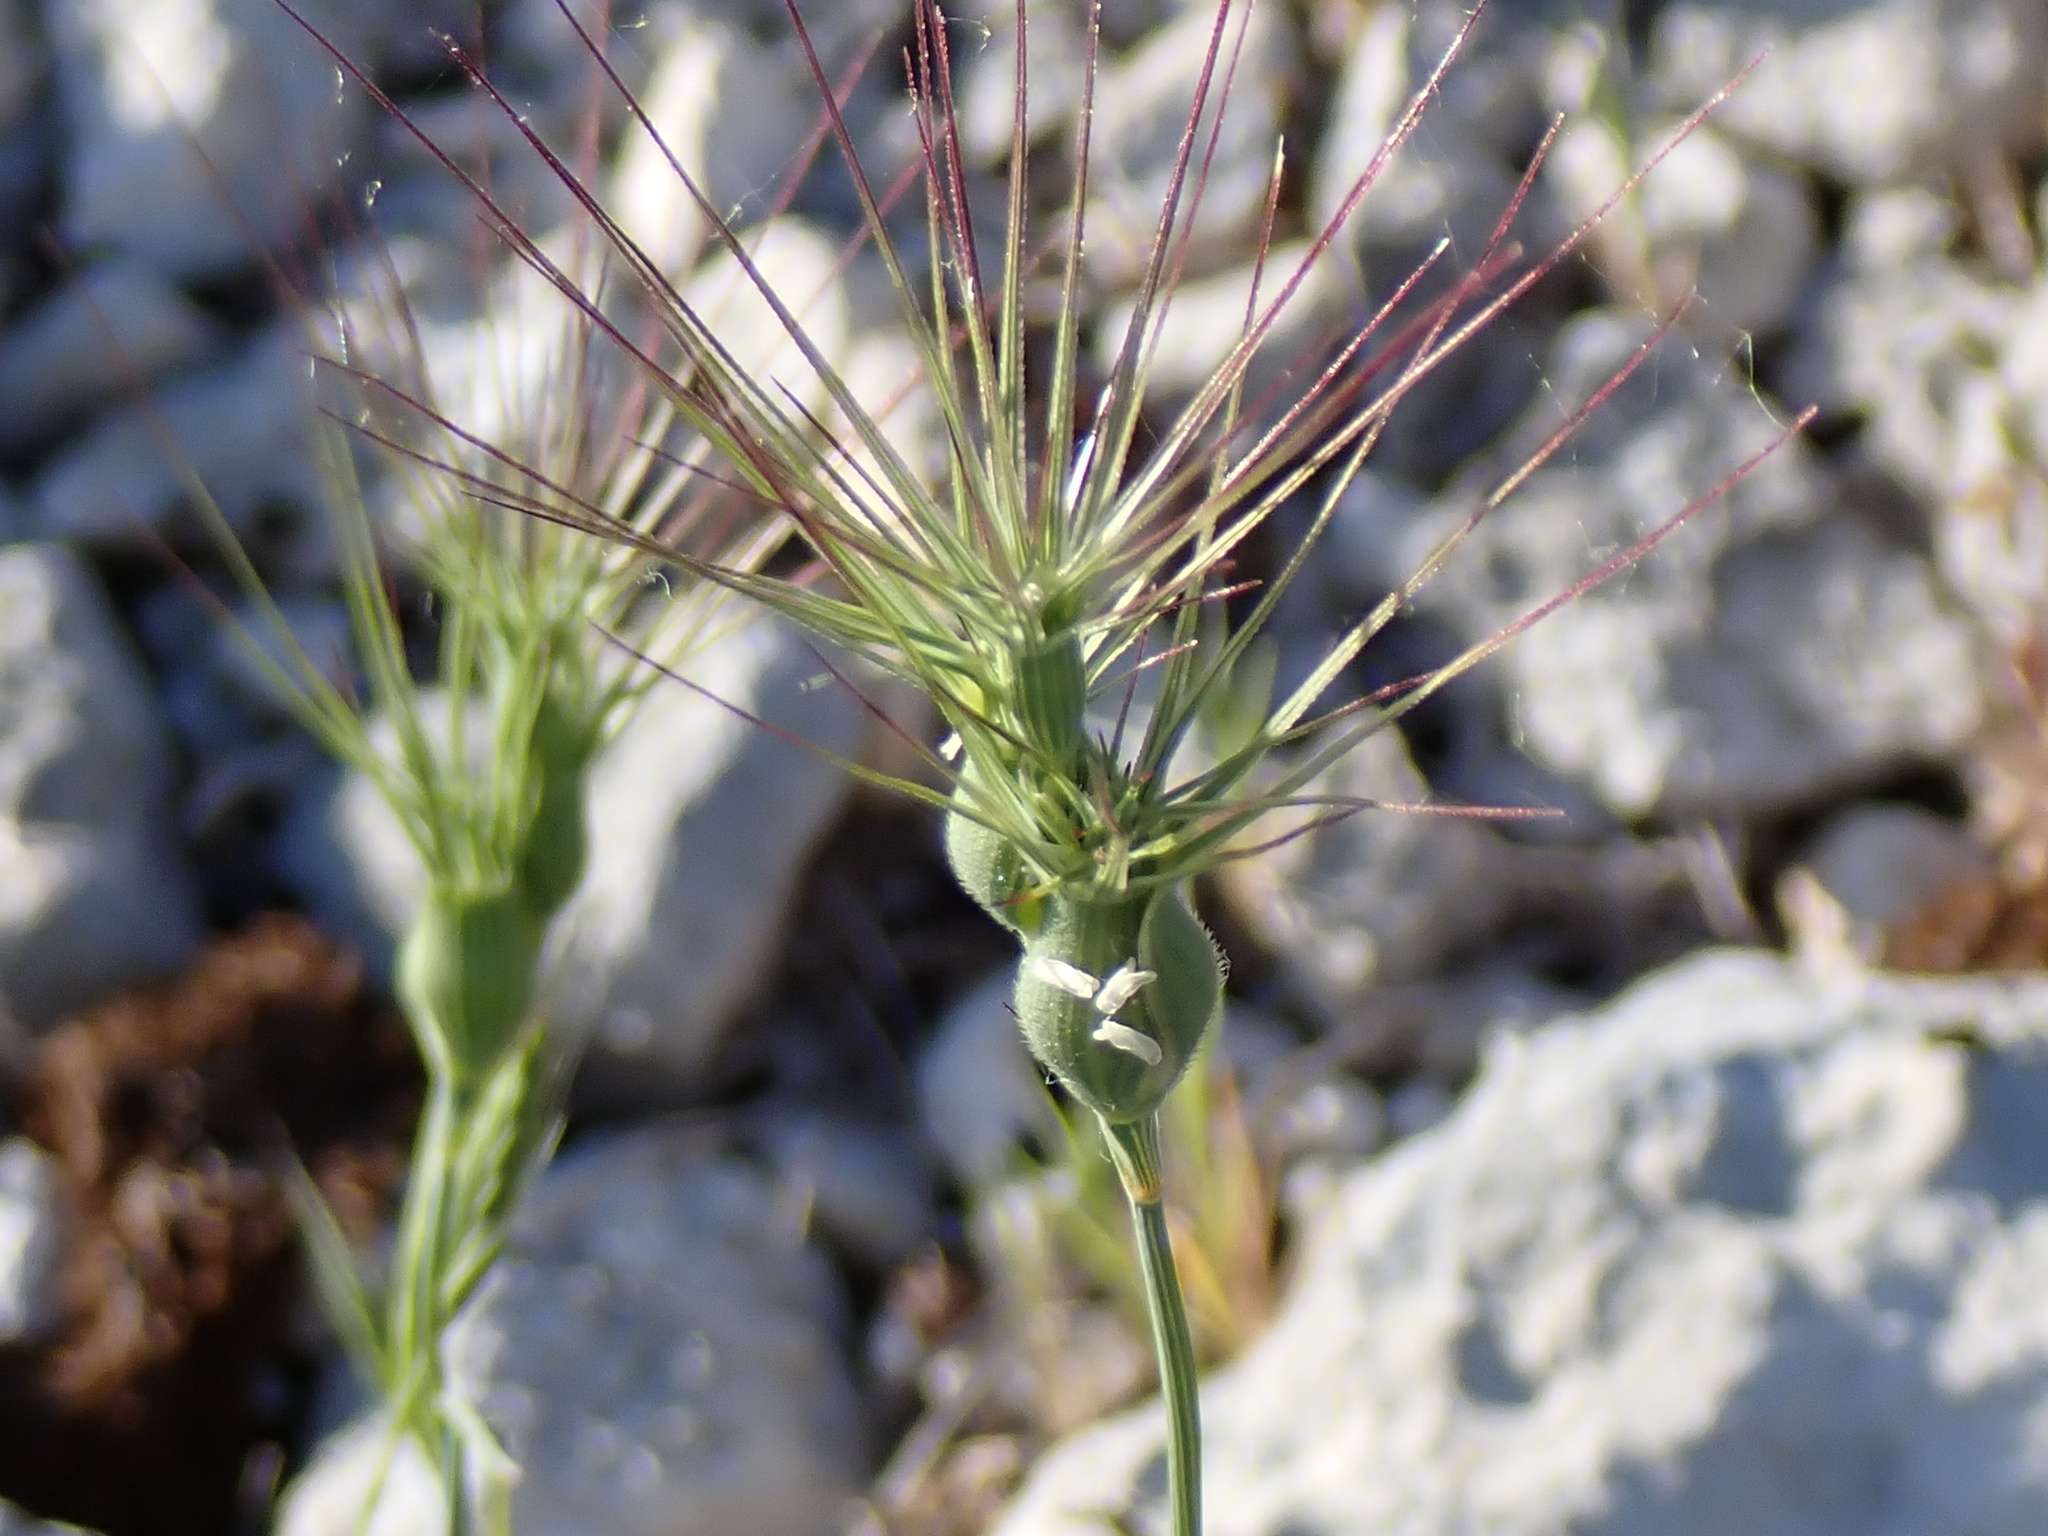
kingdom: Plantae
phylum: Tracheophyta
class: Liliopsida
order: Poales
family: Poaceae
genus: Aegilops
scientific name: Aegilops geniculata
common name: Ovate goat grass
